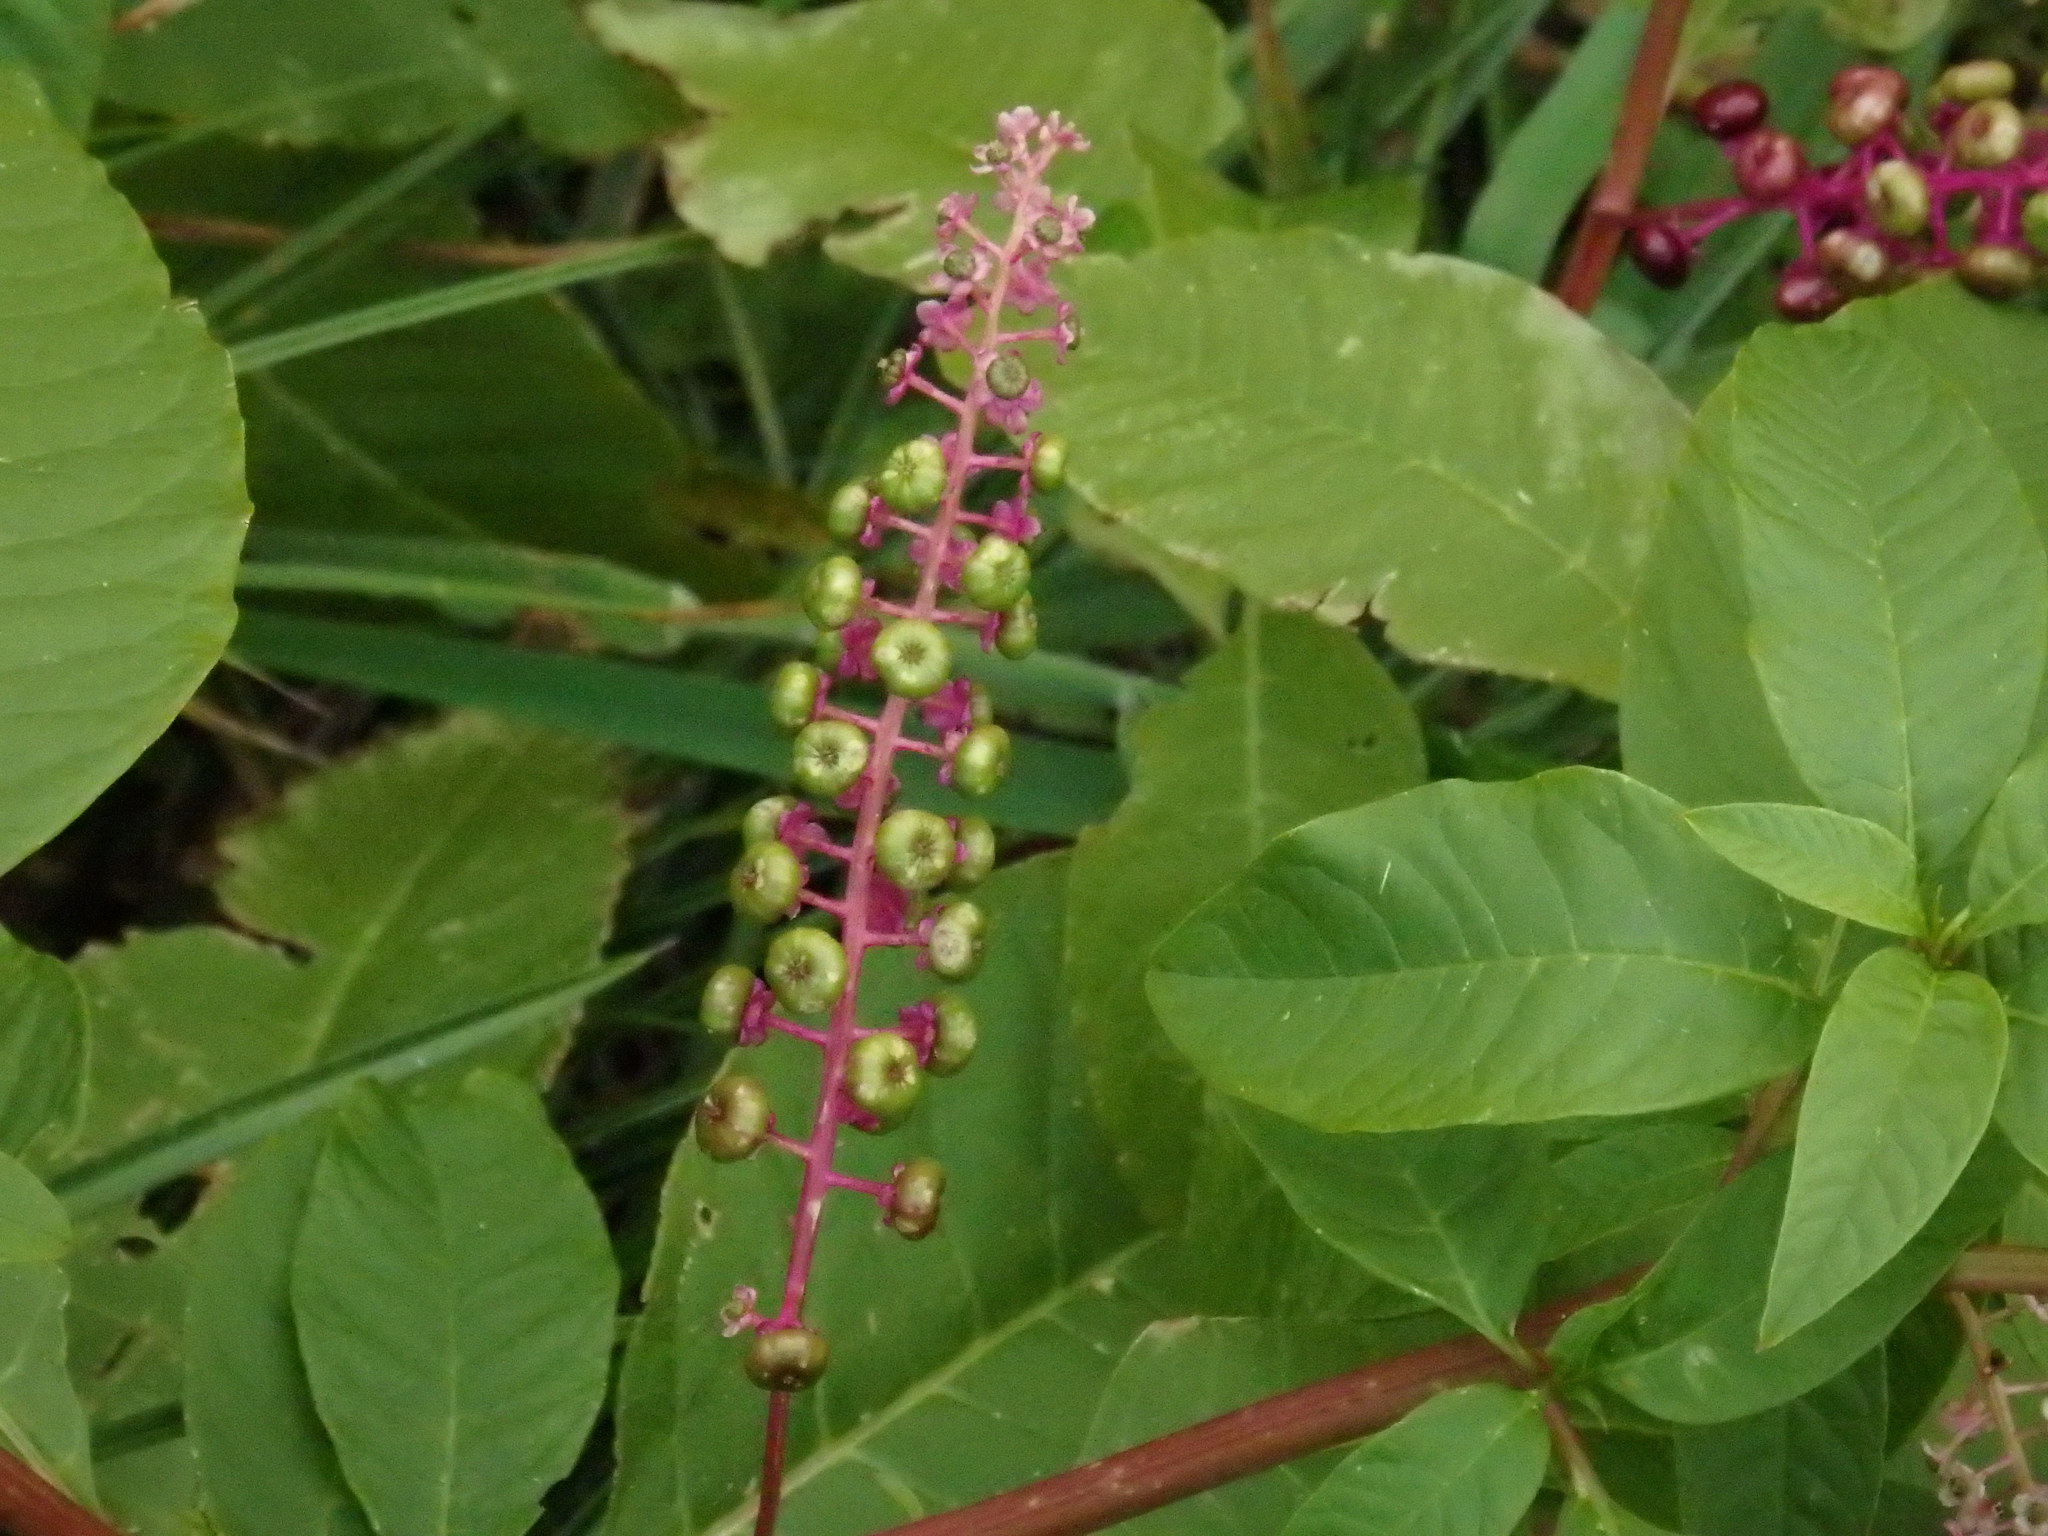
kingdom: Plantae
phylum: Tracheophyta
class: Magnoliopsida
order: Caryophyllales
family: Phytolaccaceae
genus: Phytolacca
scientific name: Phytolacca americana
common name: American pokeweed
